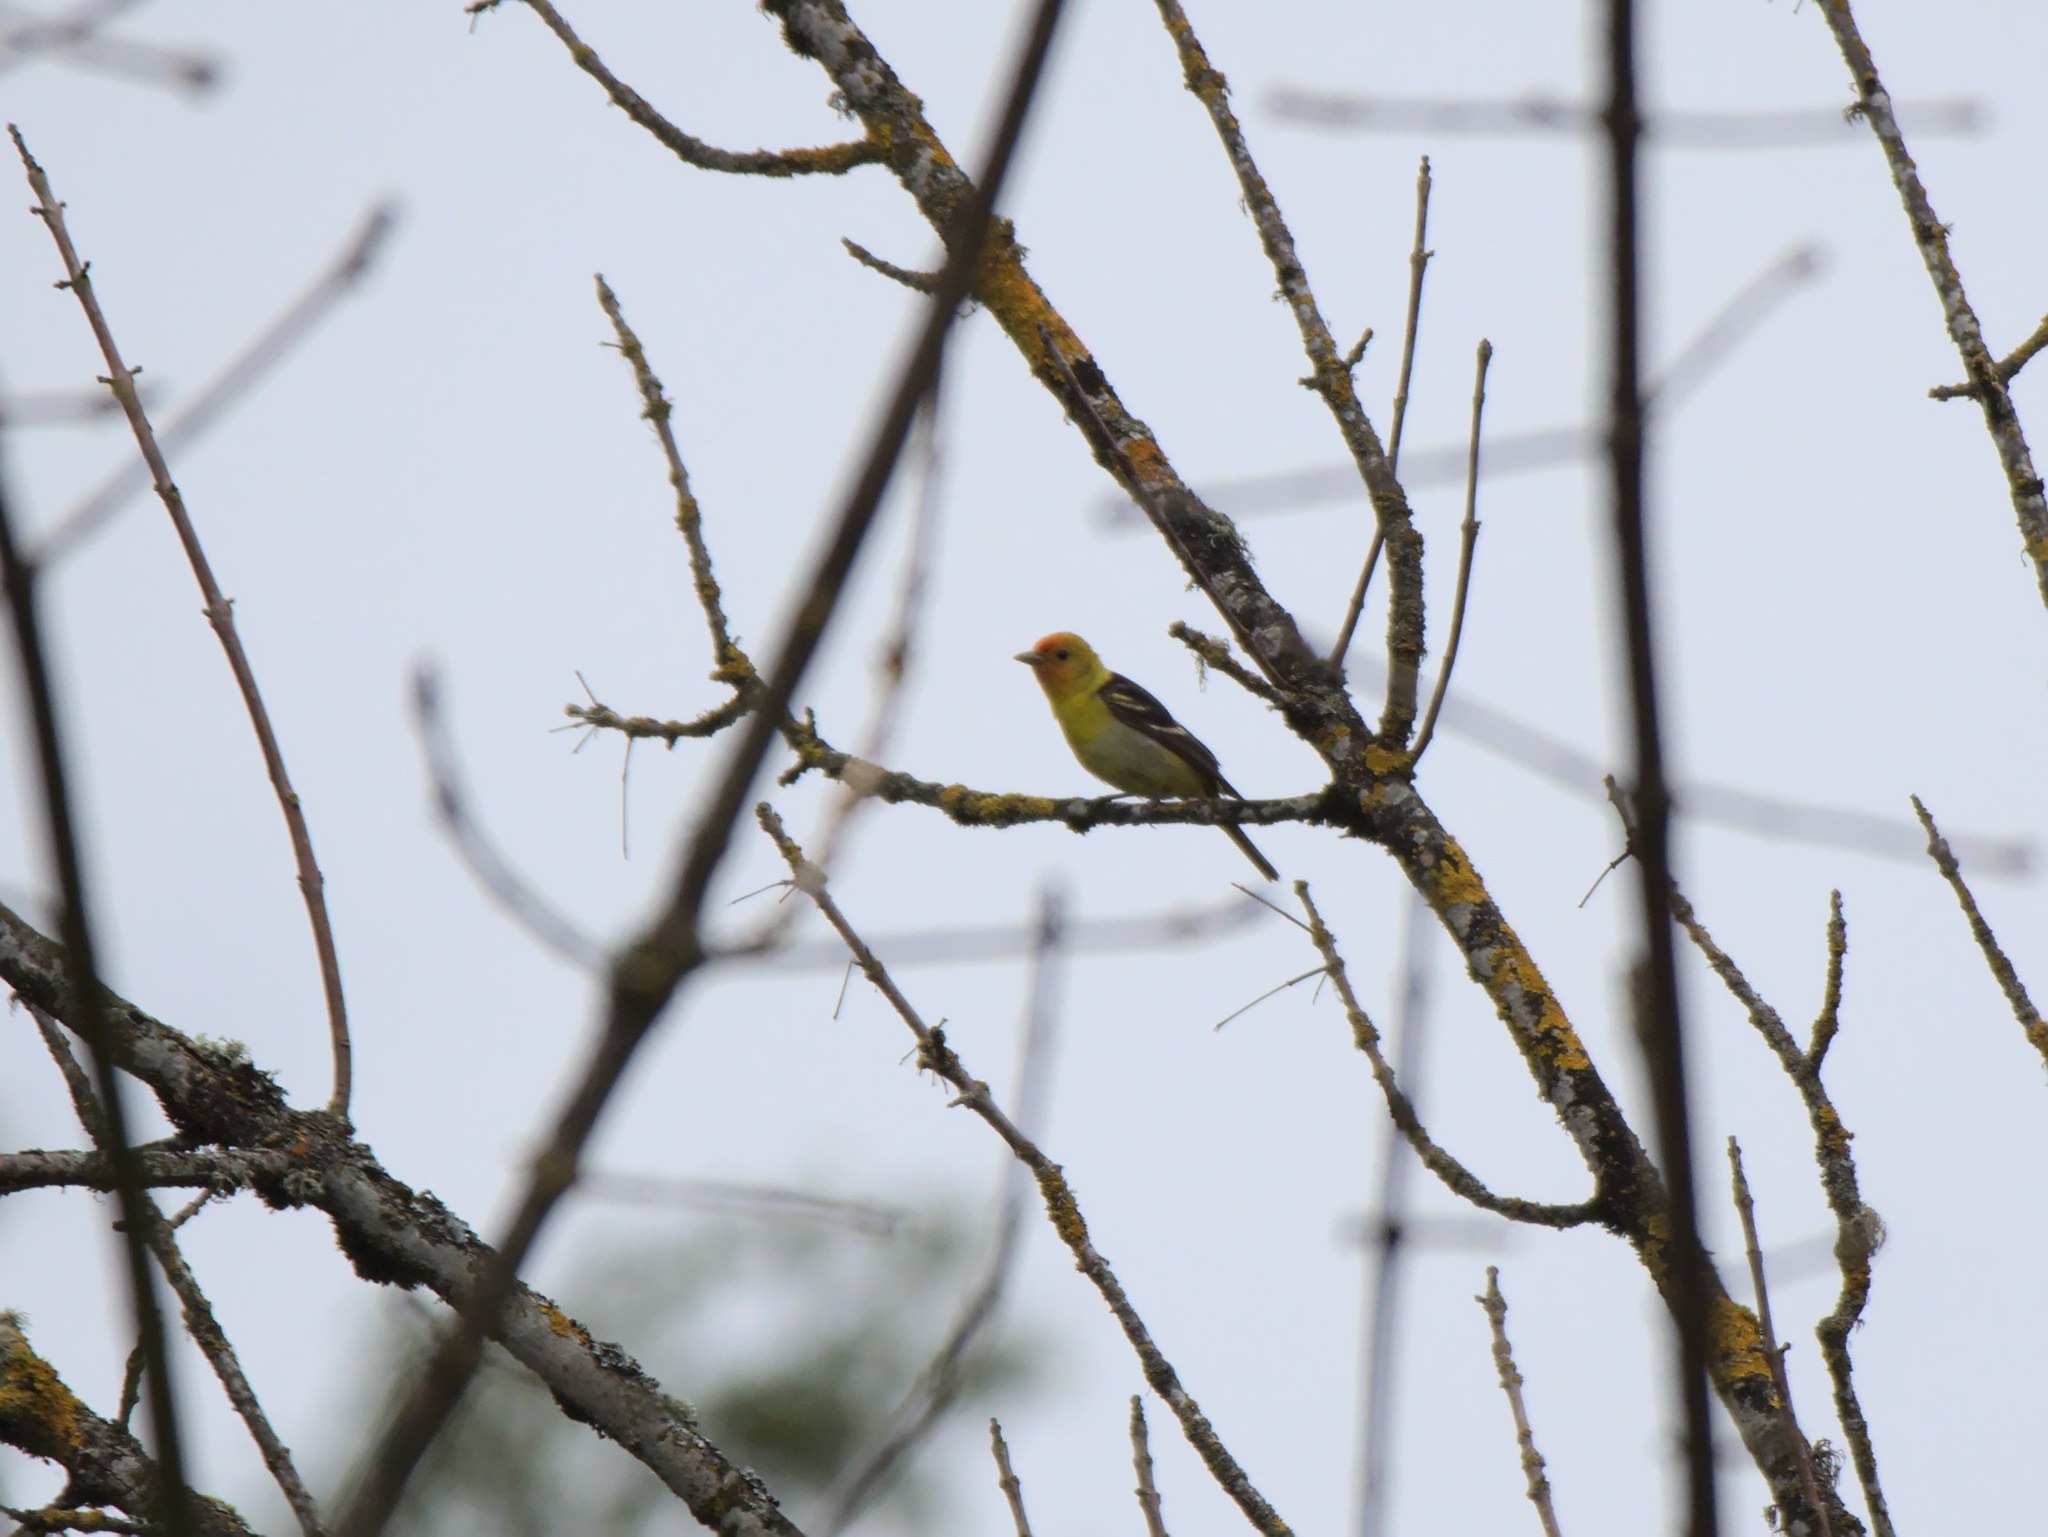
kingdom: Animalia
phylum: Chordata
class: Aves
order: Passeriformes
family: Cardinalidae
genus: Piranga
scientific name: Piranga ludoviciana
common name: Western tanager
